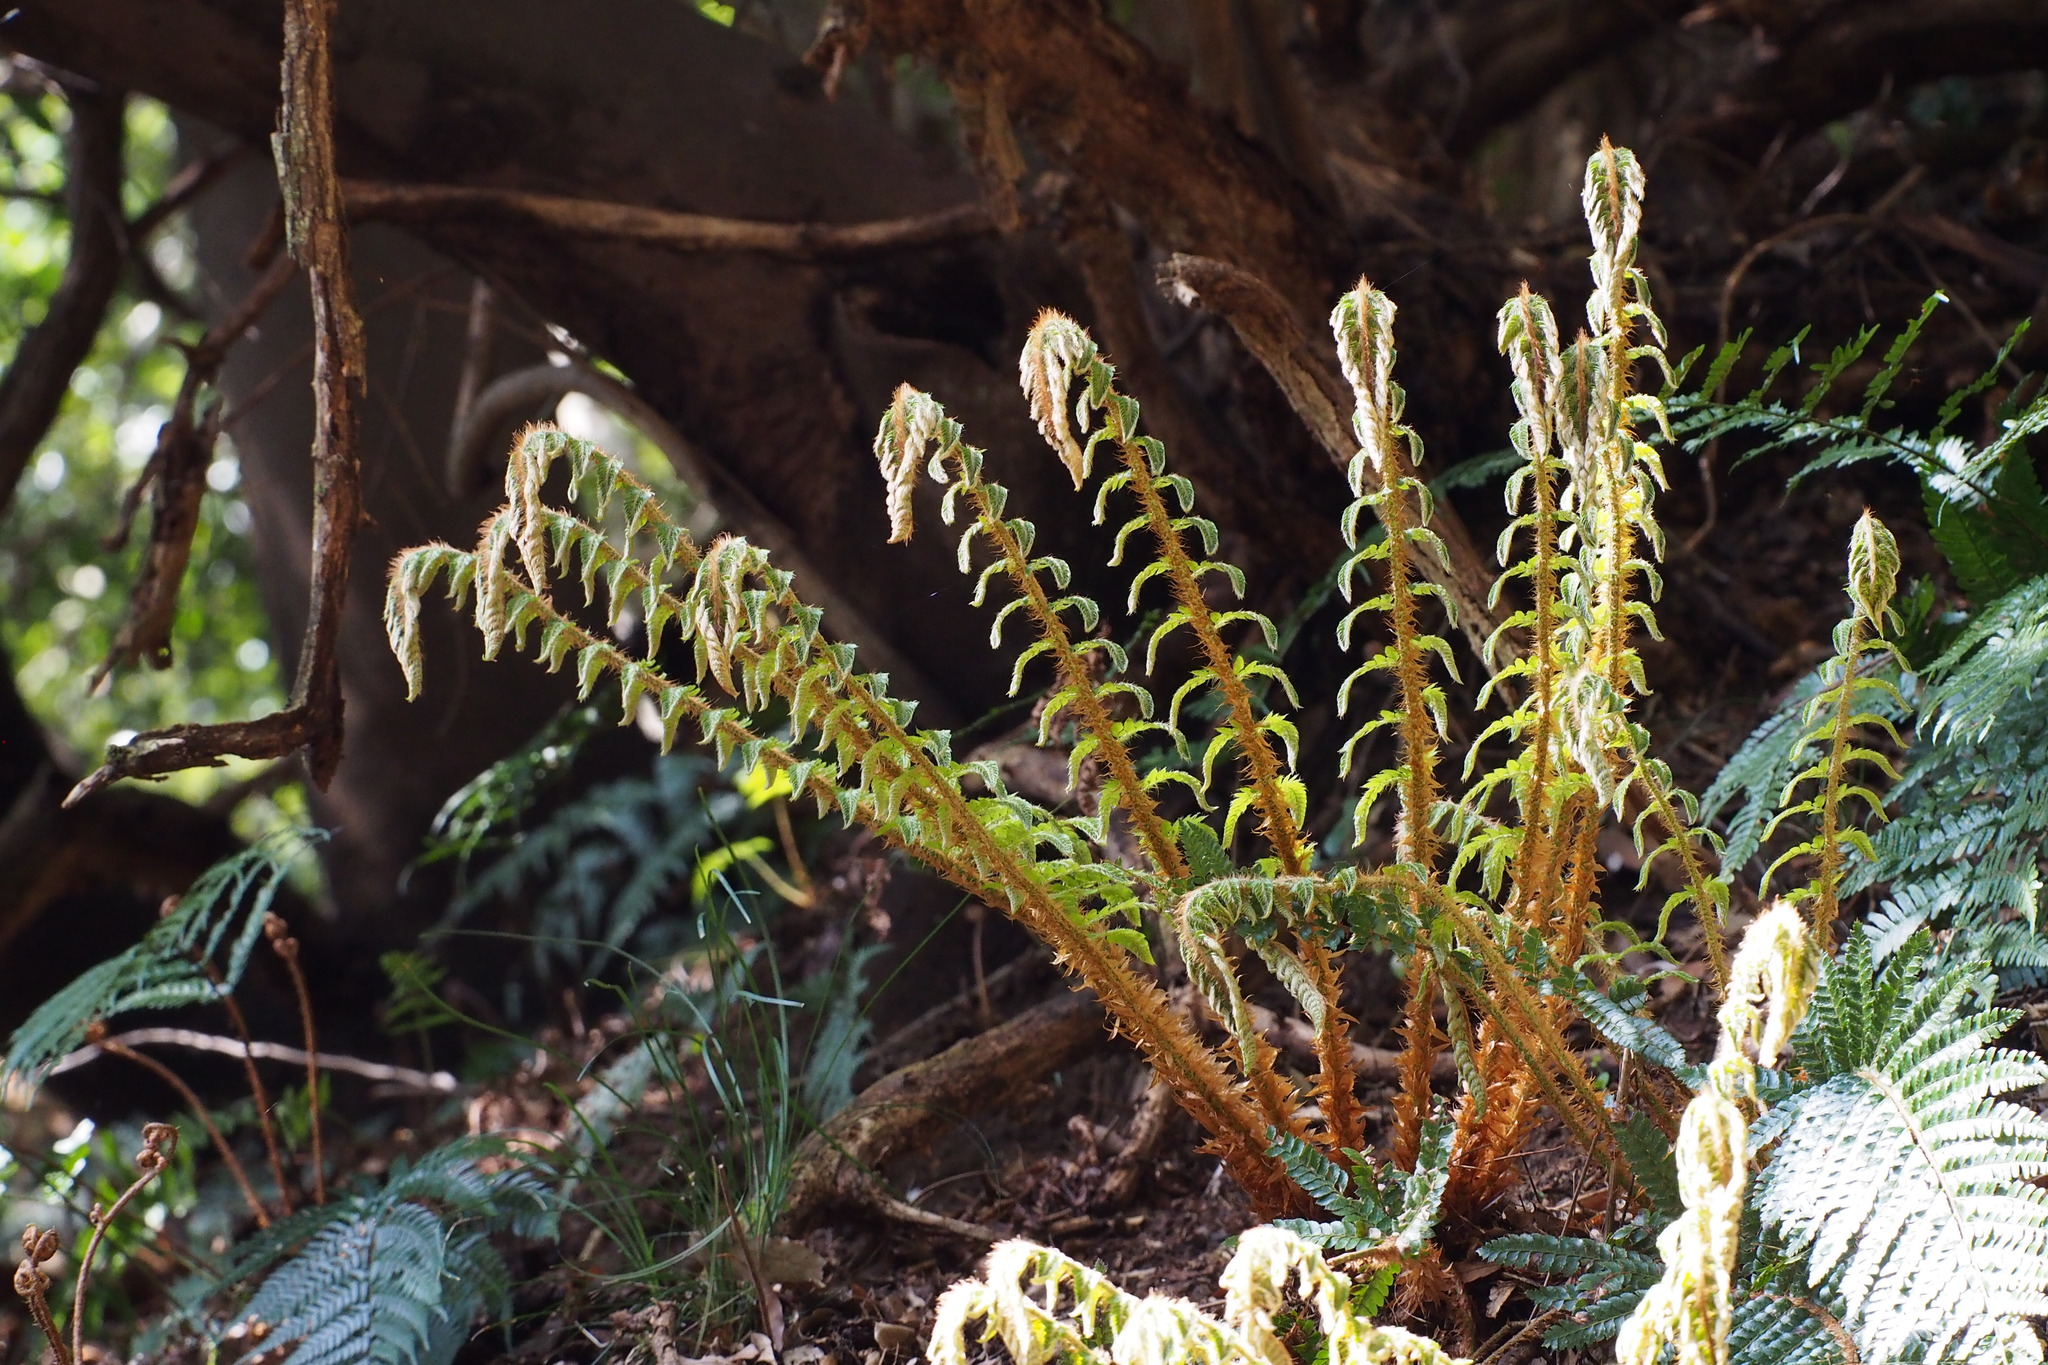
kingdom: Plantae
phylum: Tracheophyta
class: Polypodiopsida
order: Polypodiales
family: Dryopteridaceae
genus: Polystichum
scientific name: Polystichum luctuosum
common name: Korean rockfern
